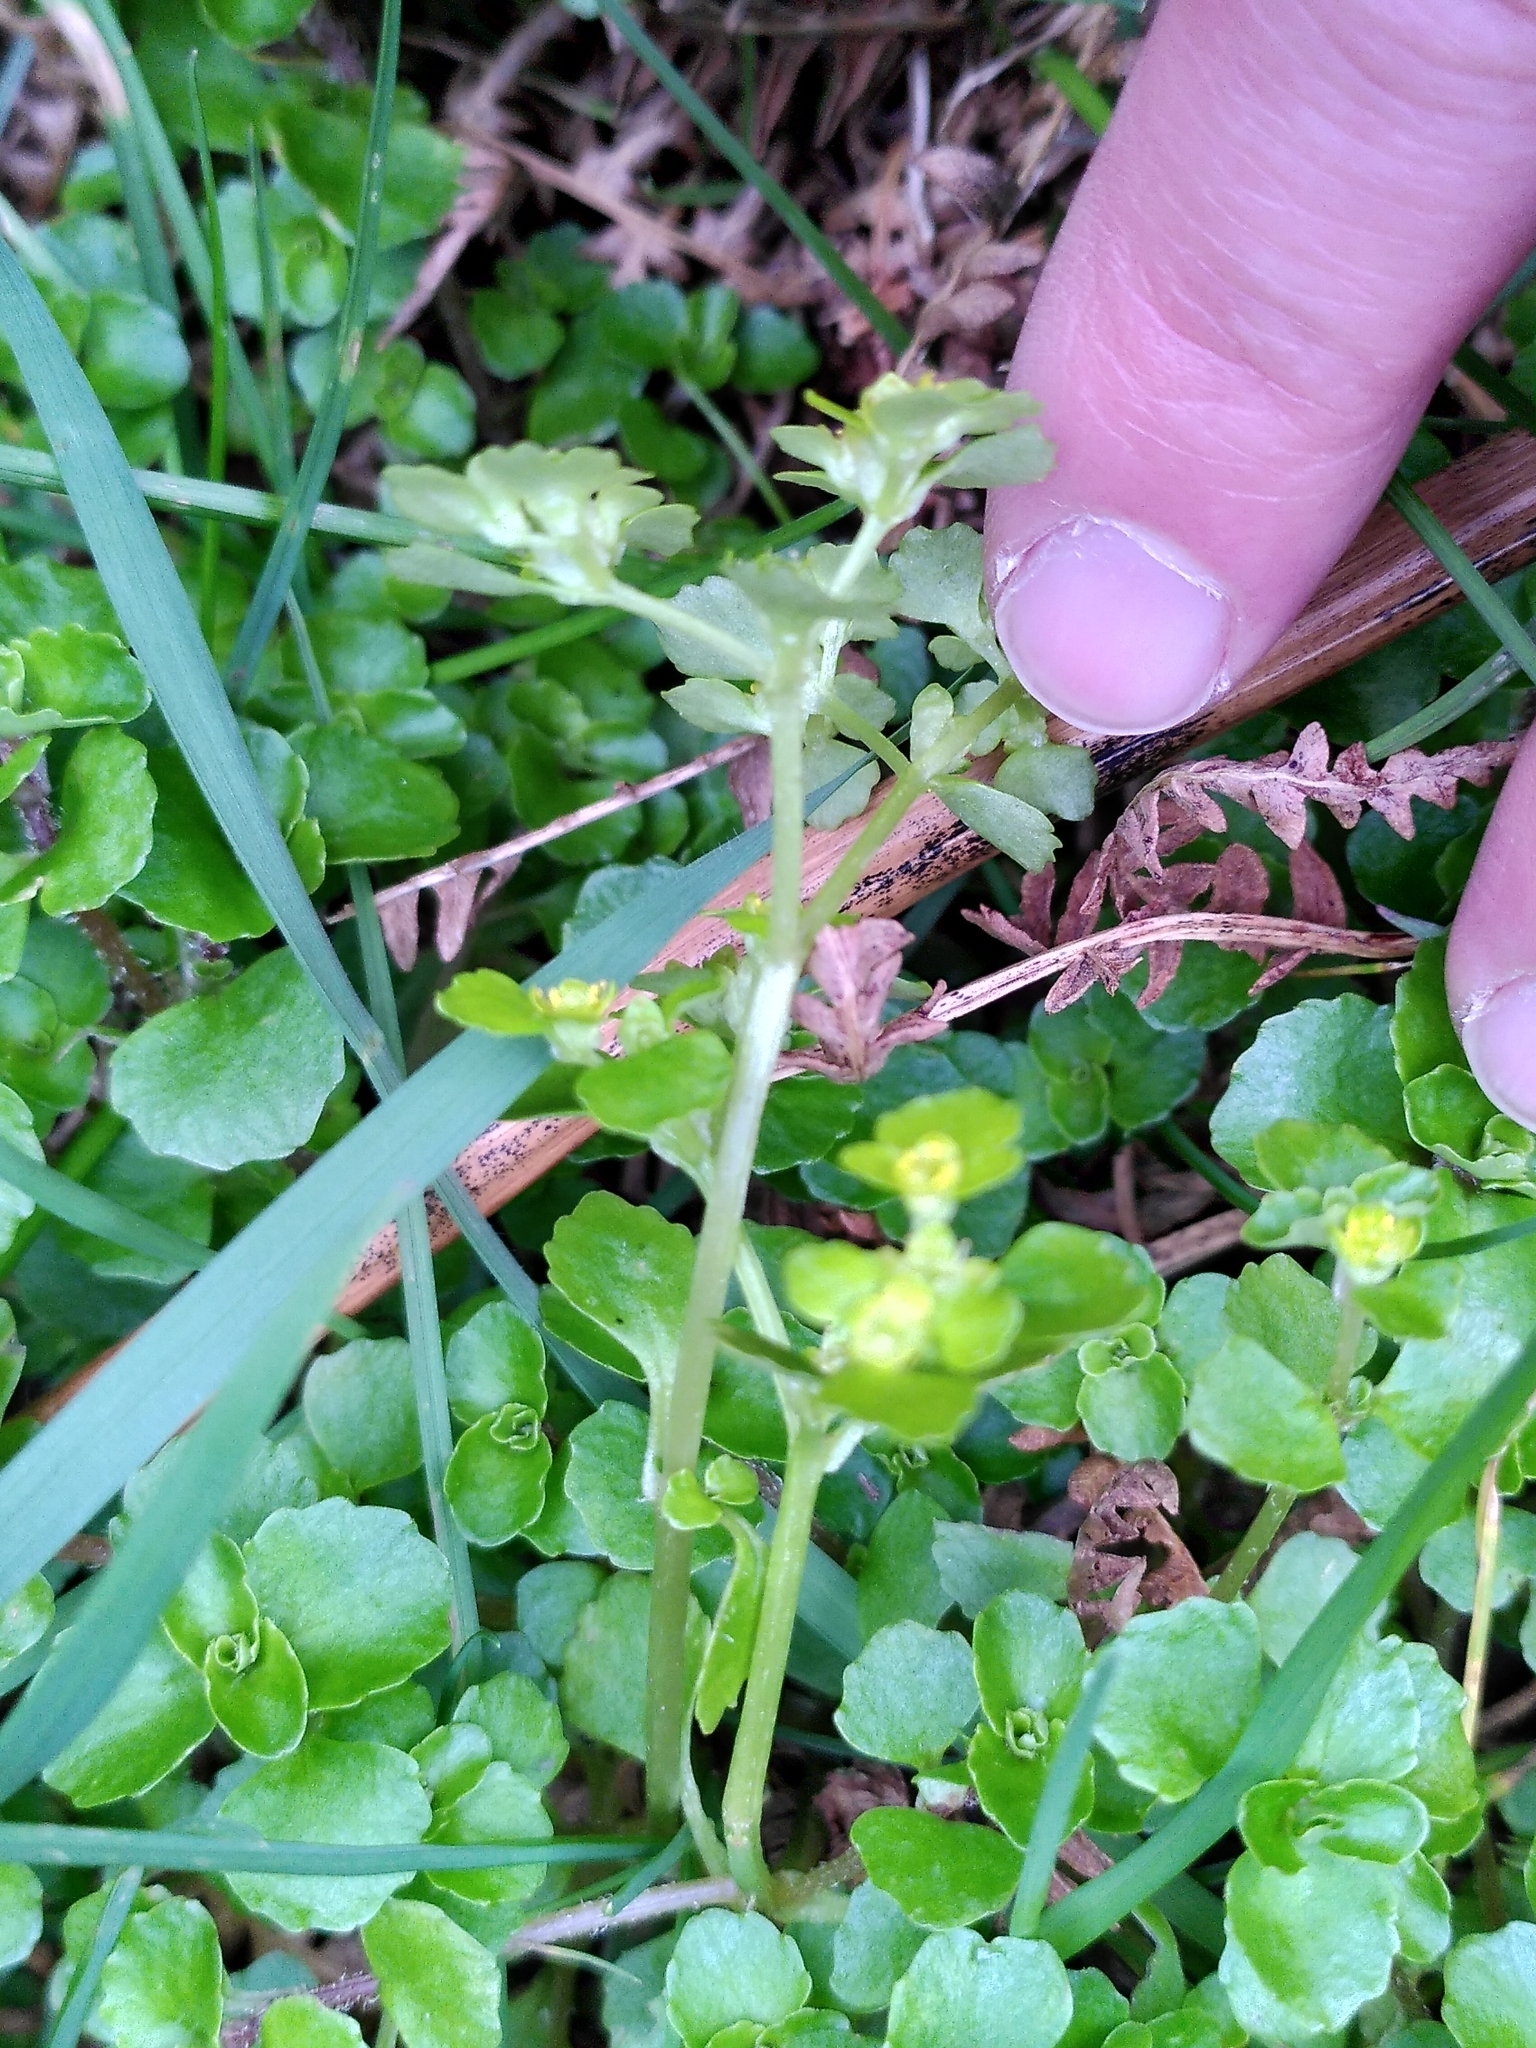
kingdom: Plantae
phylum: Tracheophyta
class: Magnoliopsida
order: Saxifragales
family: Saxifragaceae
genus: Chrysosplenium
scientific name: Chrysosplenium oppositifolium
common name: Opposite-leaved golden-saxifrage
